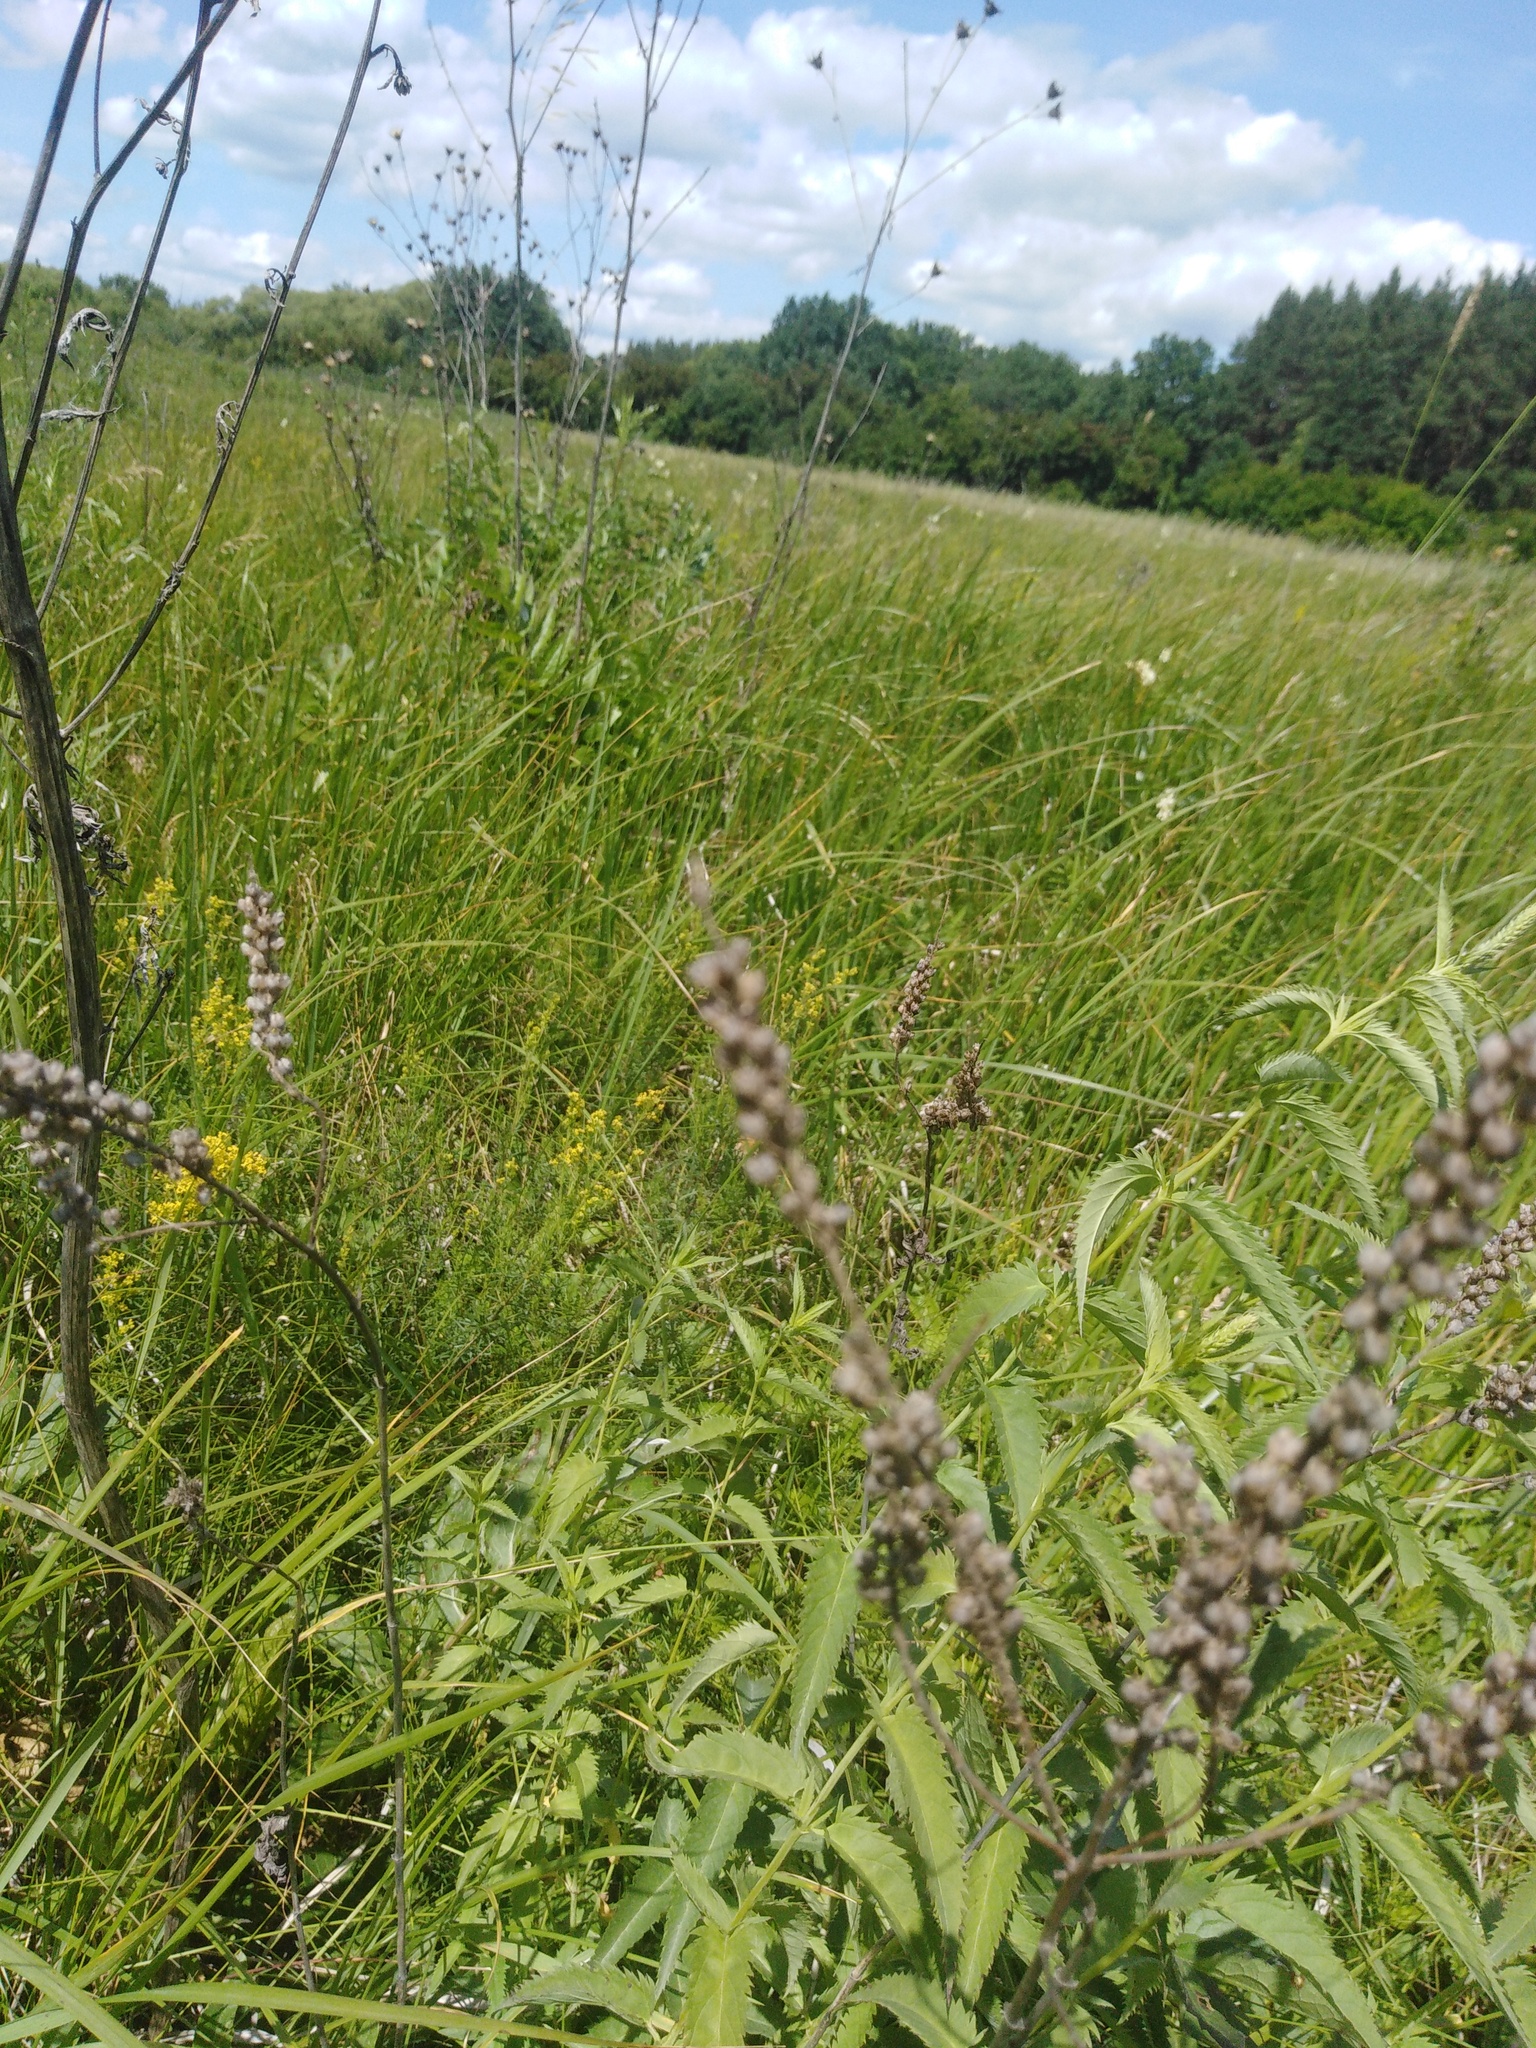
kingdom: Plantae
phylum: Tracheophyta
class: Magnoliopsida
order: Lamiales
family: Plantaginaceae
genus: Veronica
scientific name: Veronica longifolia
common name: Garden speedwell
